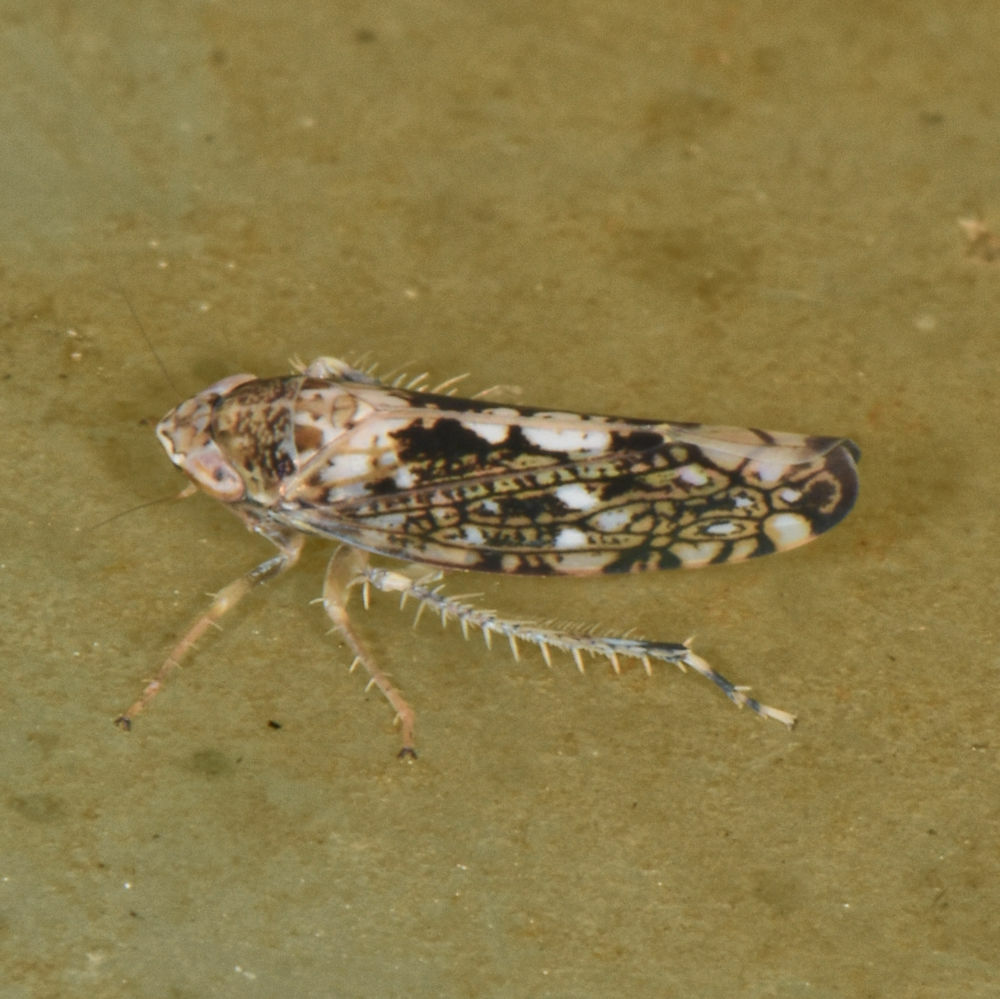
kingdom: Animalia
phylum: Arthropoda
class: Insecta
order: Hemiptera
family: Cicadellidae
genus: Prescottia
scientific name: Prescottia lobata
